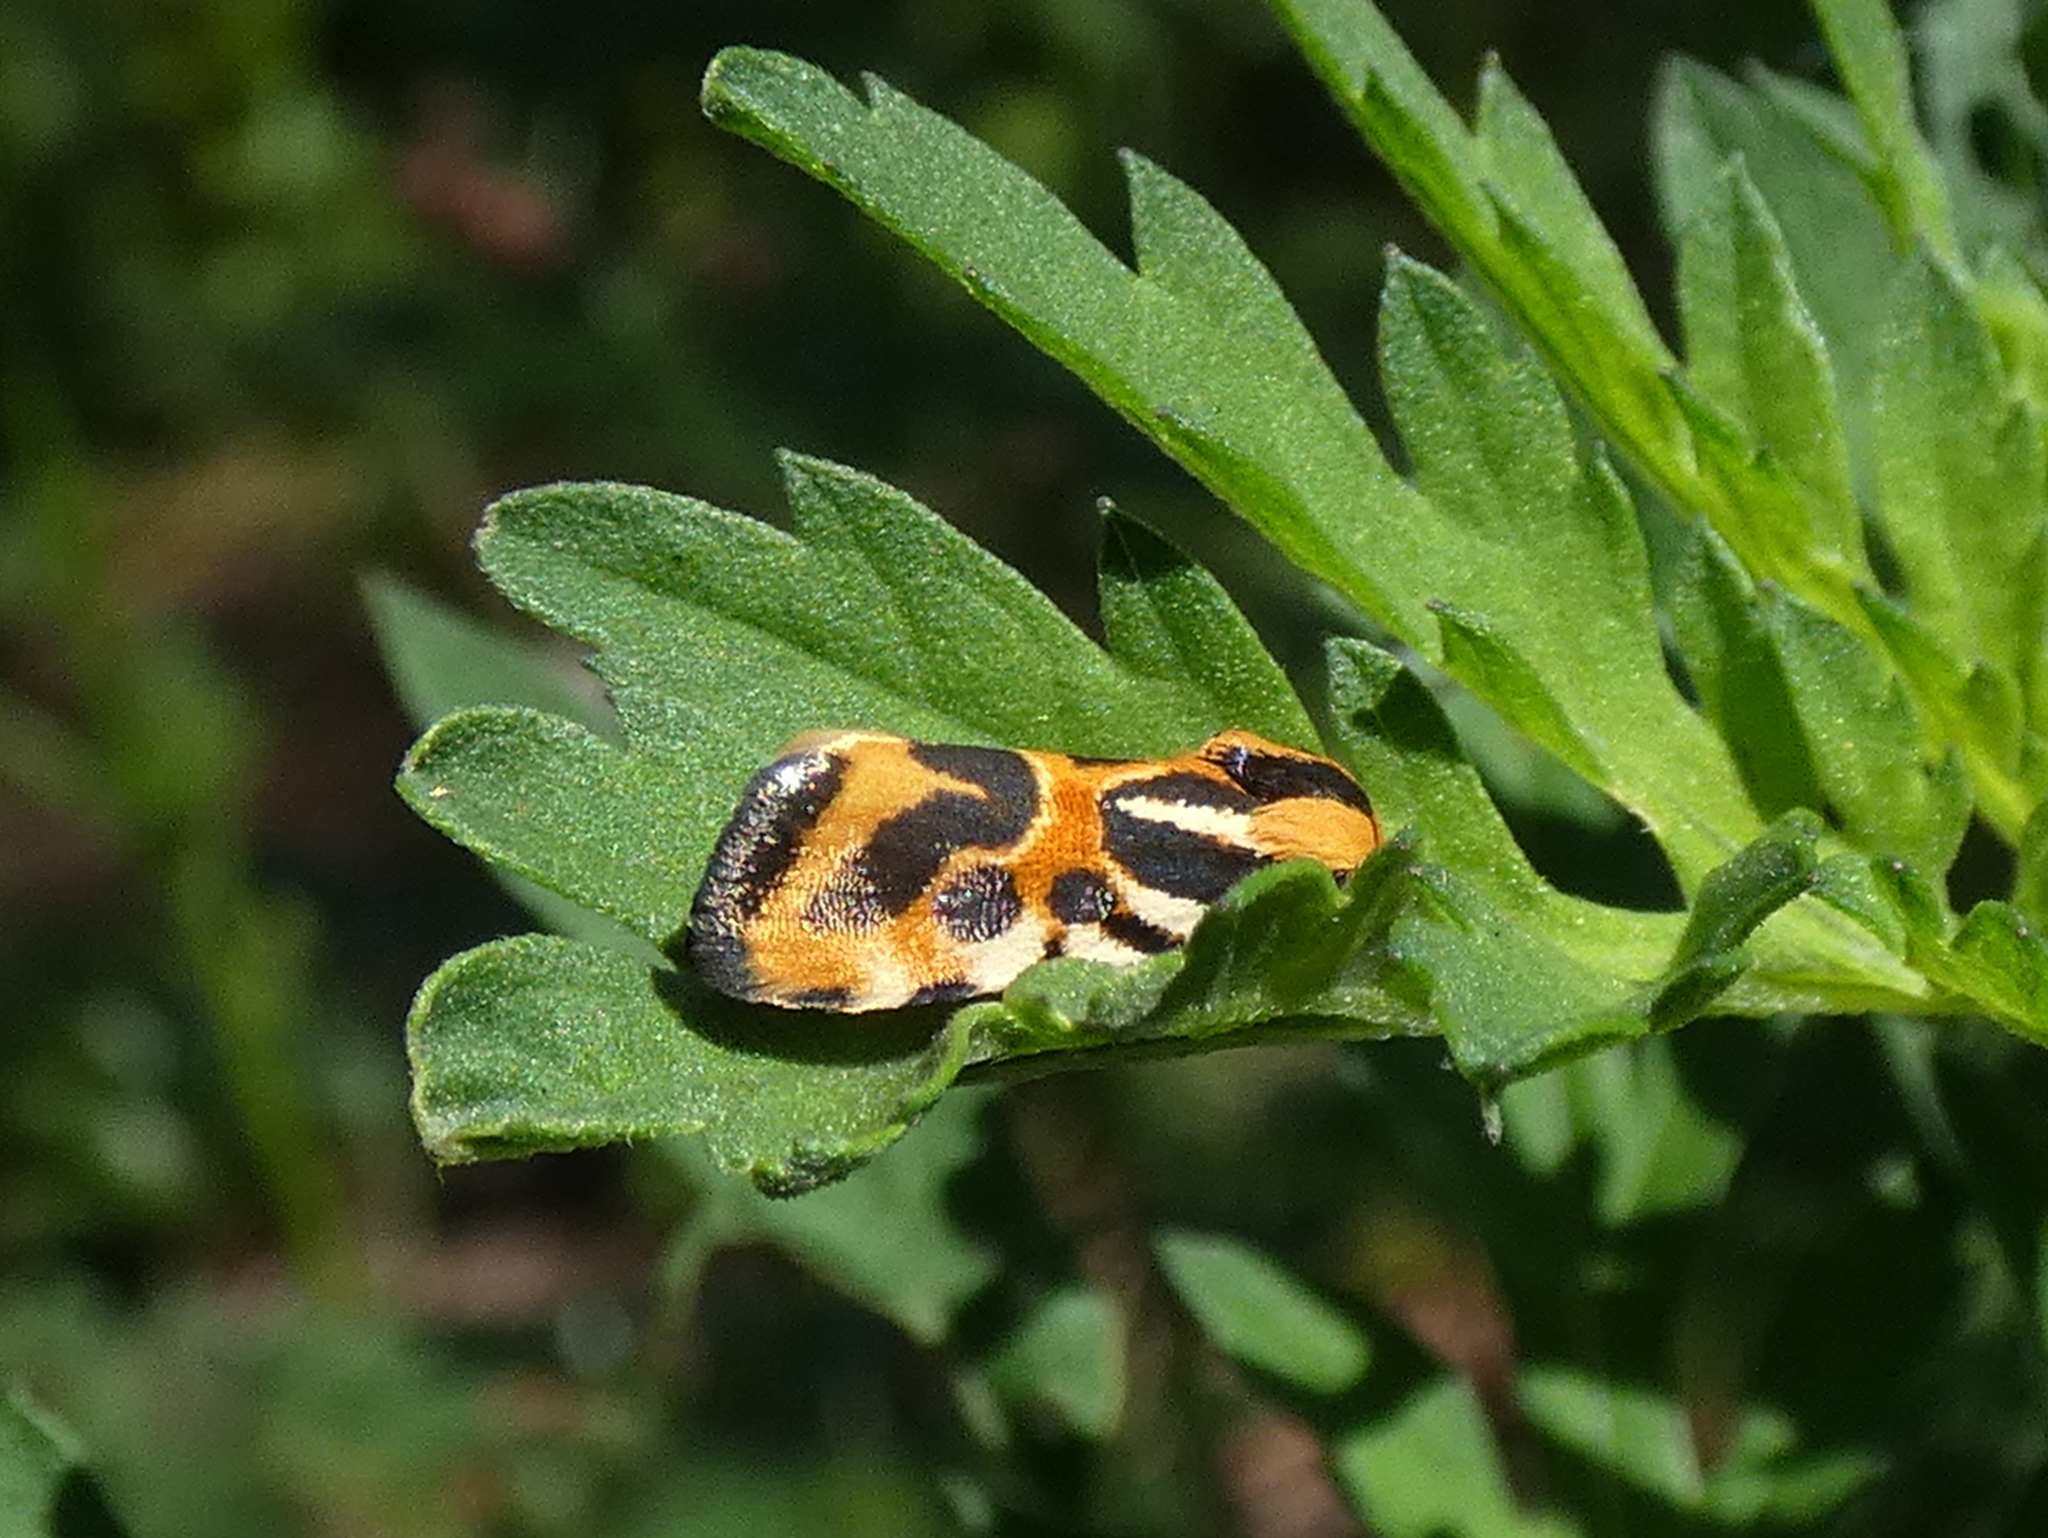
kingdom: Animalia
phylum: Arthropoda
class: Insecta
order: Lepidoptera
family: Noctuidae
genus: Acontia
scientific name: Acontia onagrus
